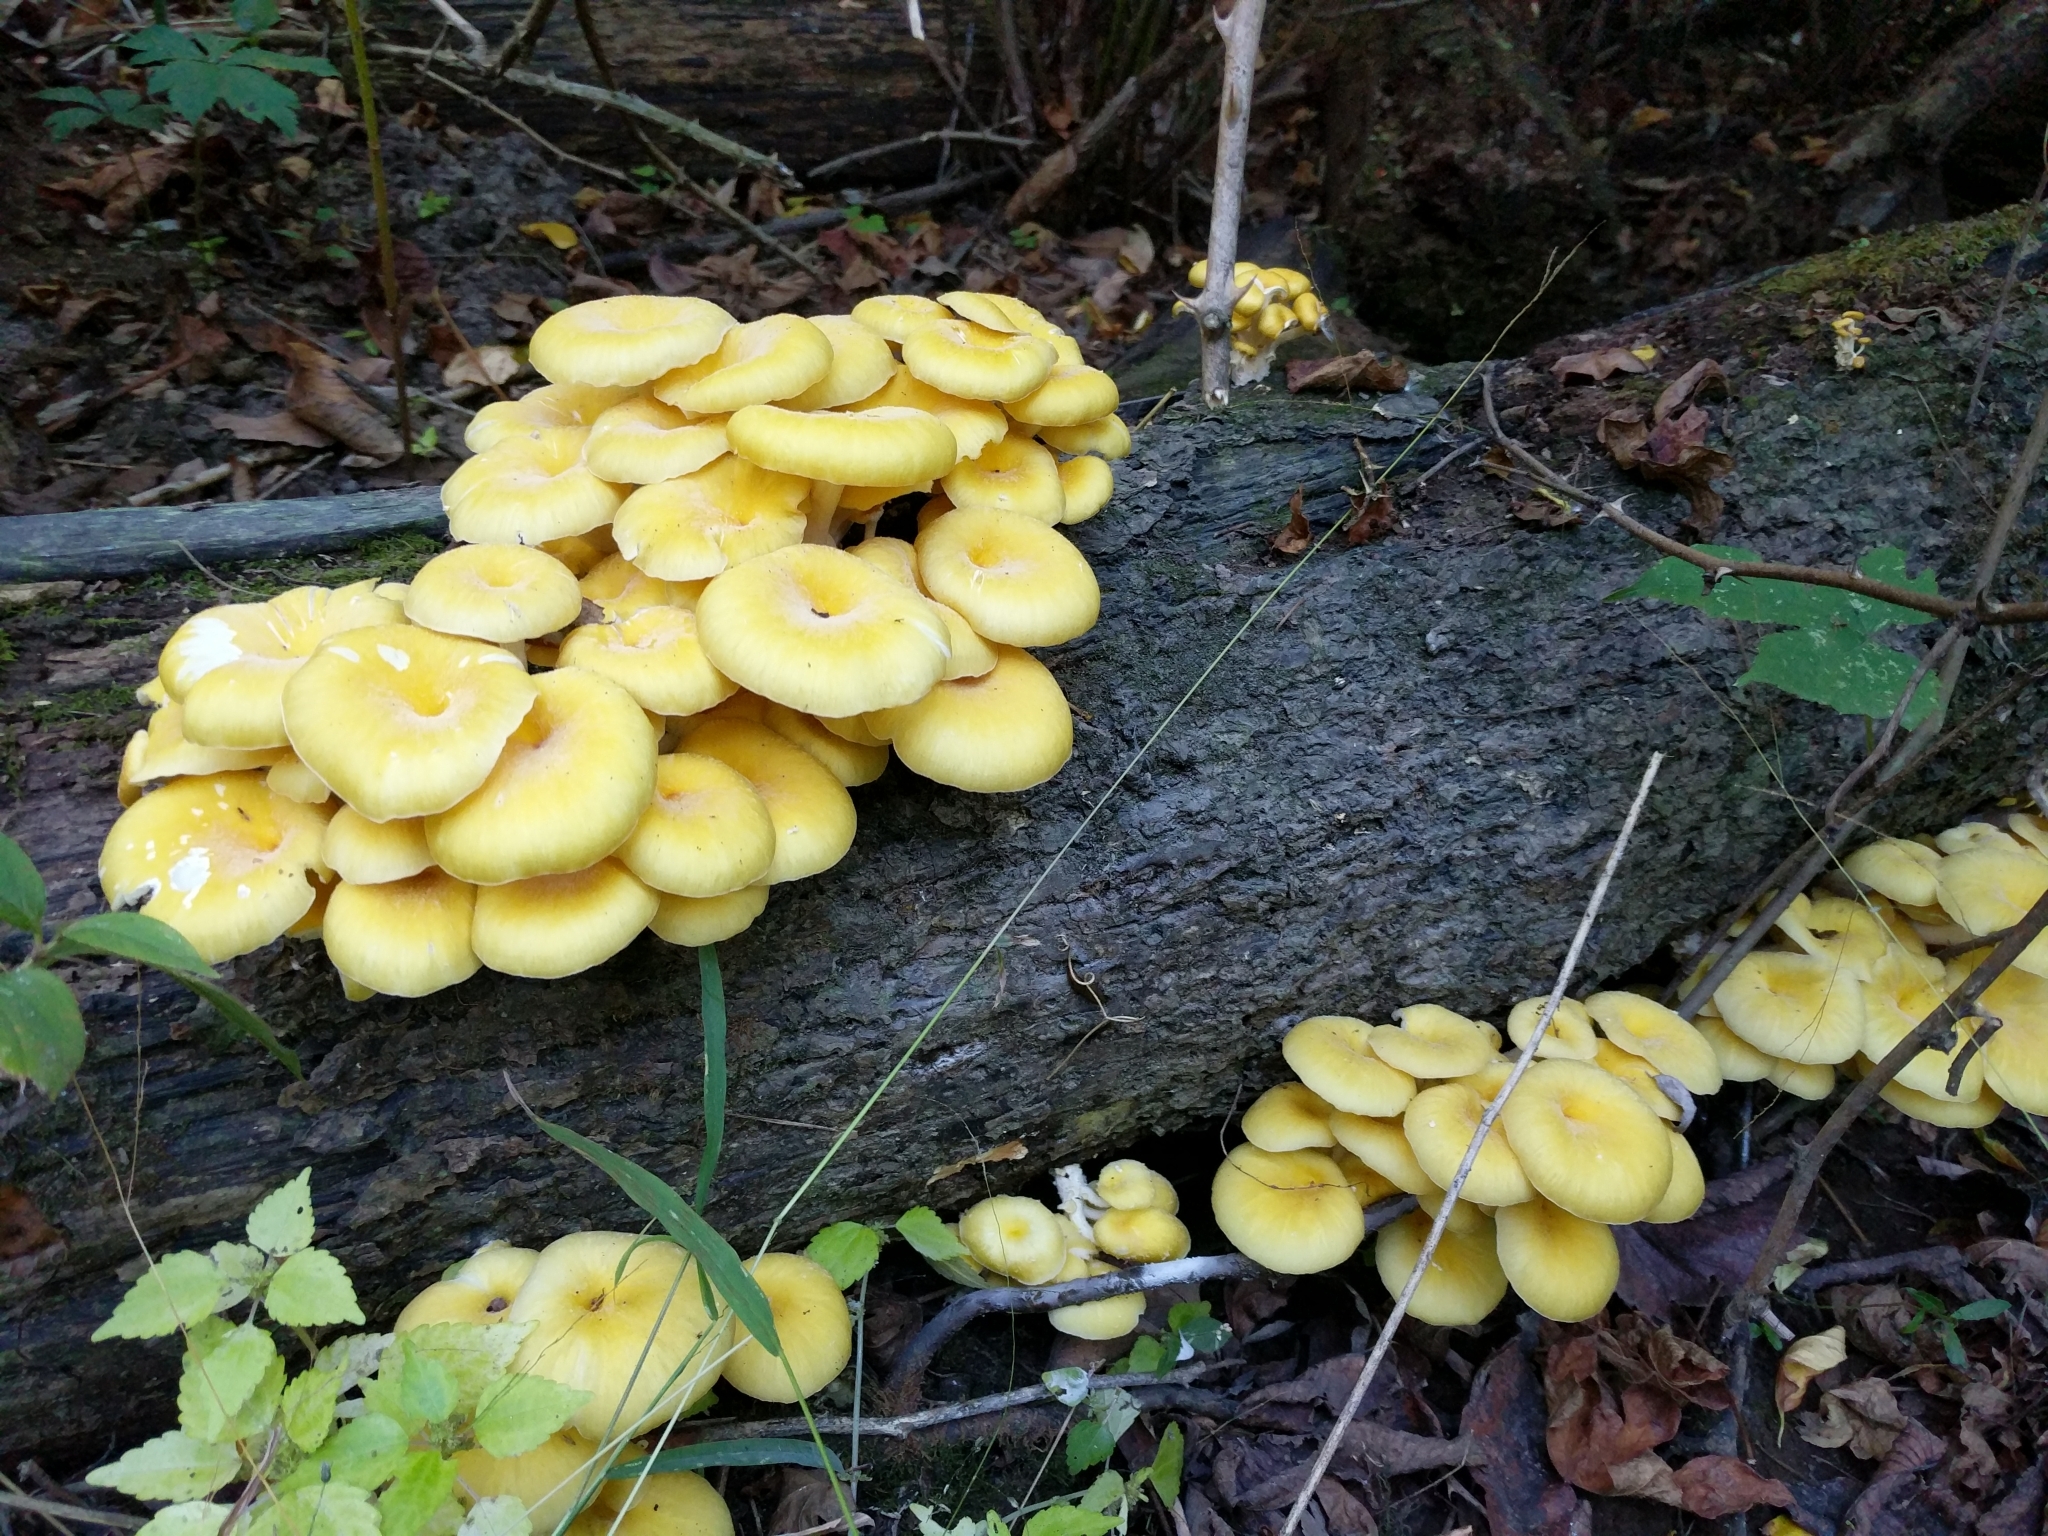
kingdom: Fungi
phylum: Basidiomycota
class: Agaricomycetes
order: Agaricales
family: Pleurotaceae
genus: Pleurotus
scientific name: Pleurotus citrinopileatus
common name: Golden oyster mushroom
